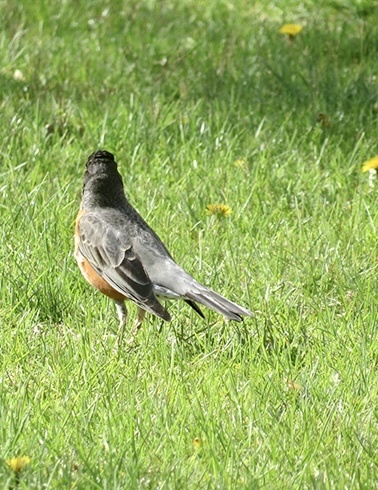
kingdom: Animalia
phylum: Chordata
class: Aves
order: Passeriformes
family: Turdidae
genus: Turdus
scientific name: Turdus migratorius
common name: American robin
